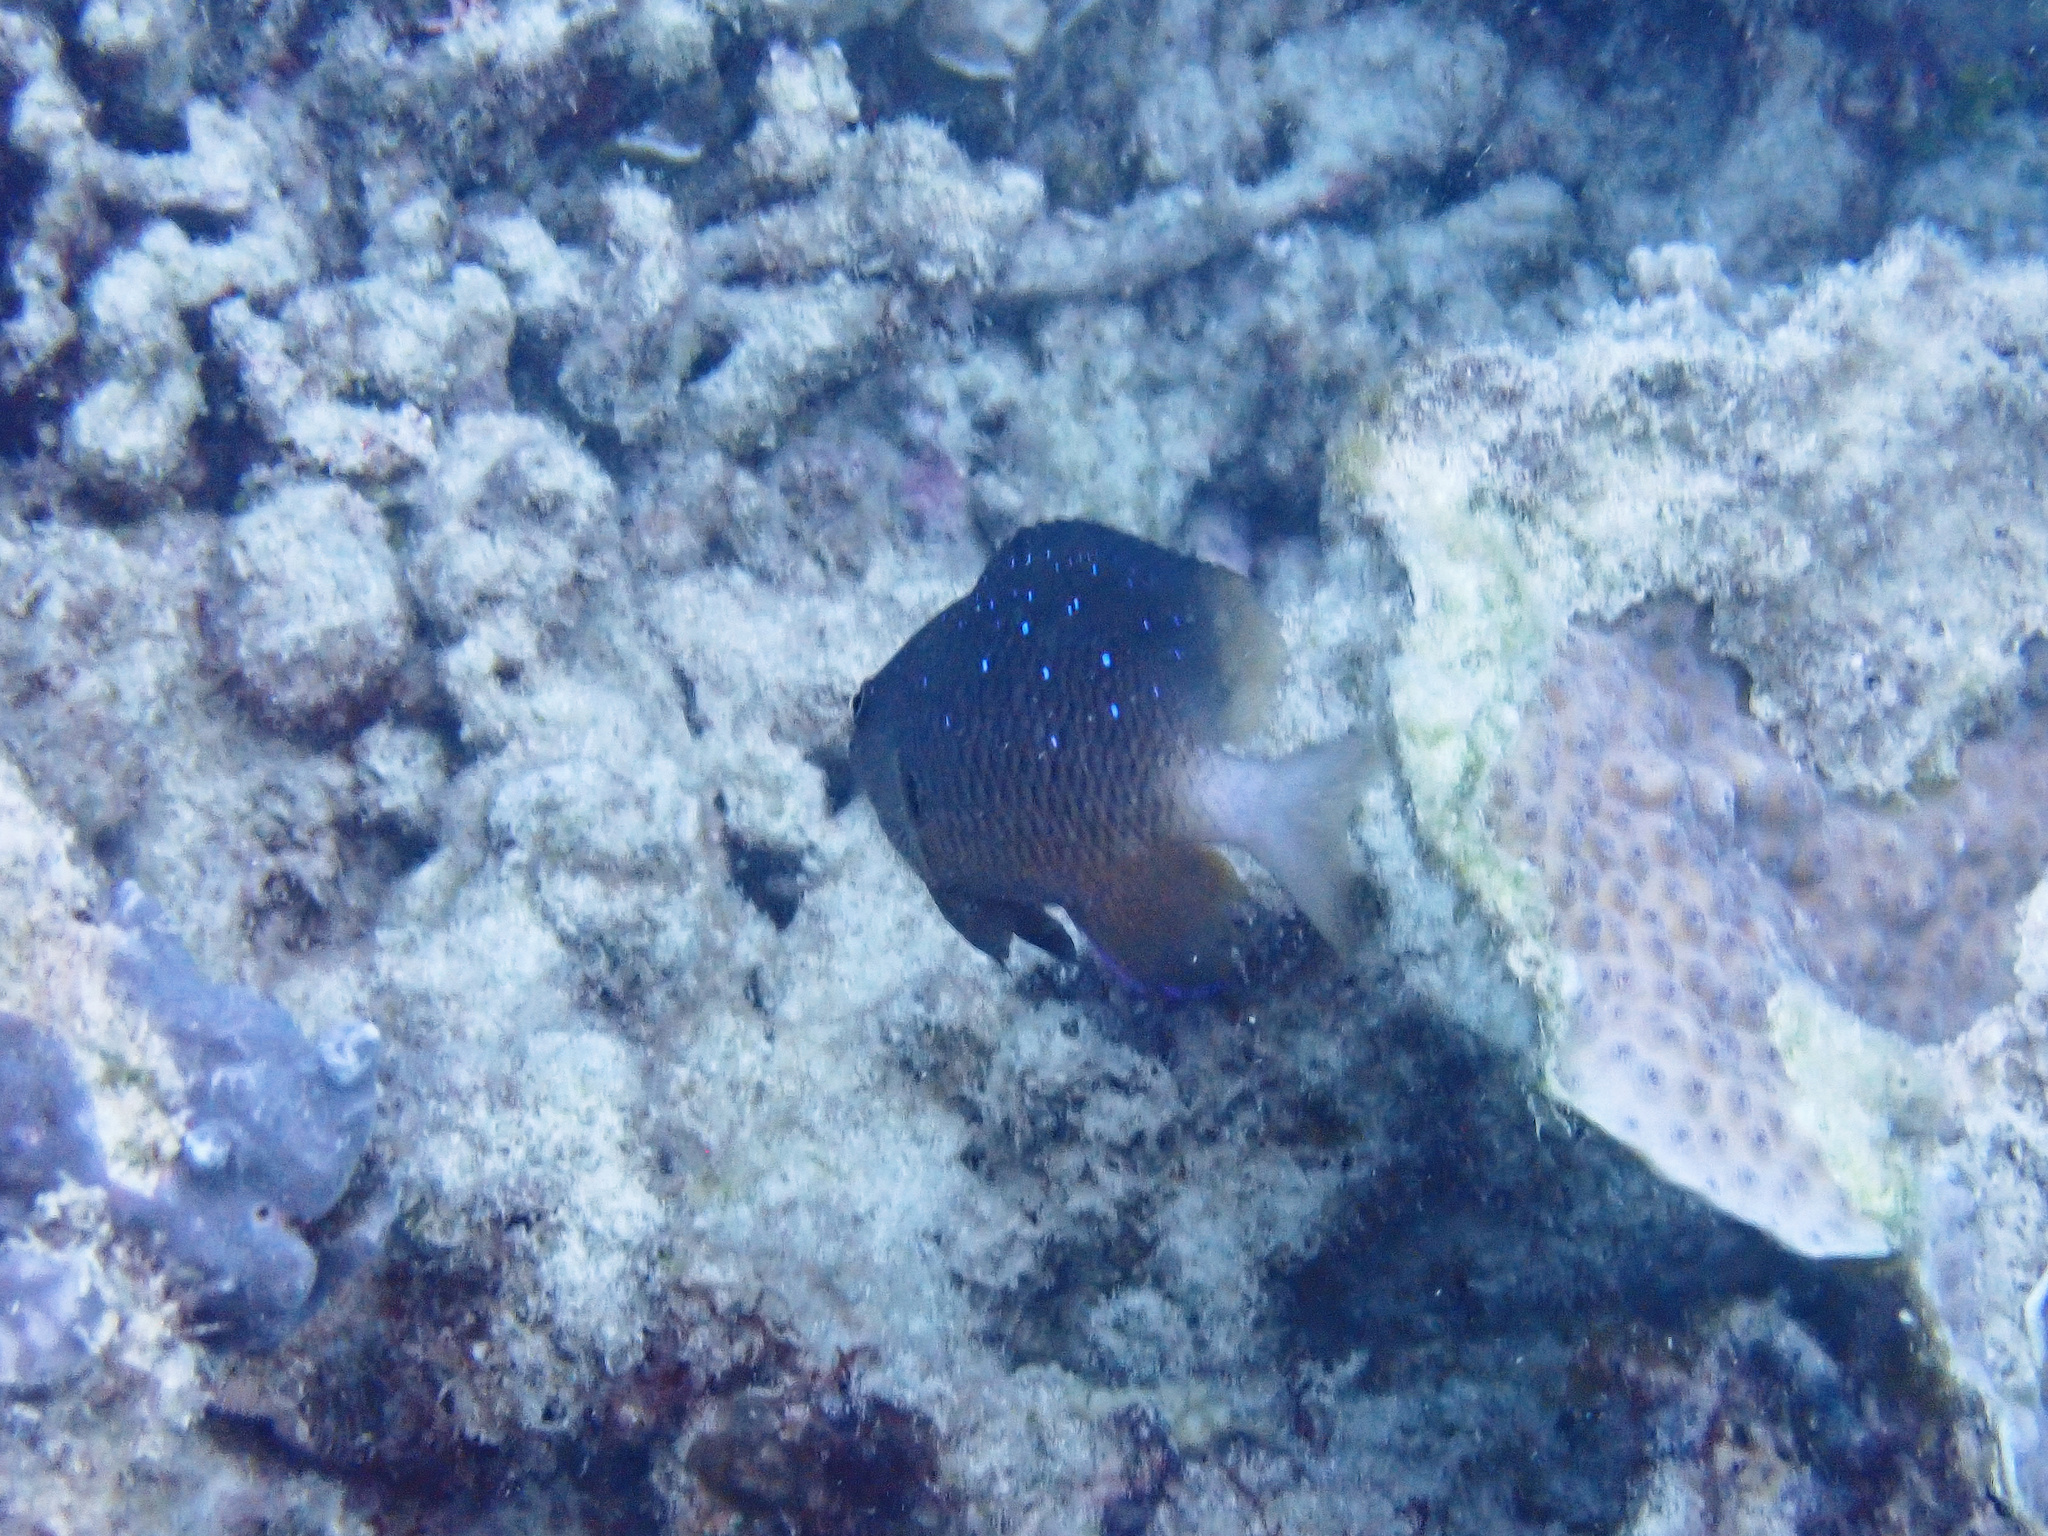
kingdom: Animalia
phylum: Chordata
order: Perciformes
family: Pomacentridae
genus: Plectroglyphidodon
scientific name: Plectroglyphidodon lacrymatus
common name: Jewel damsel
